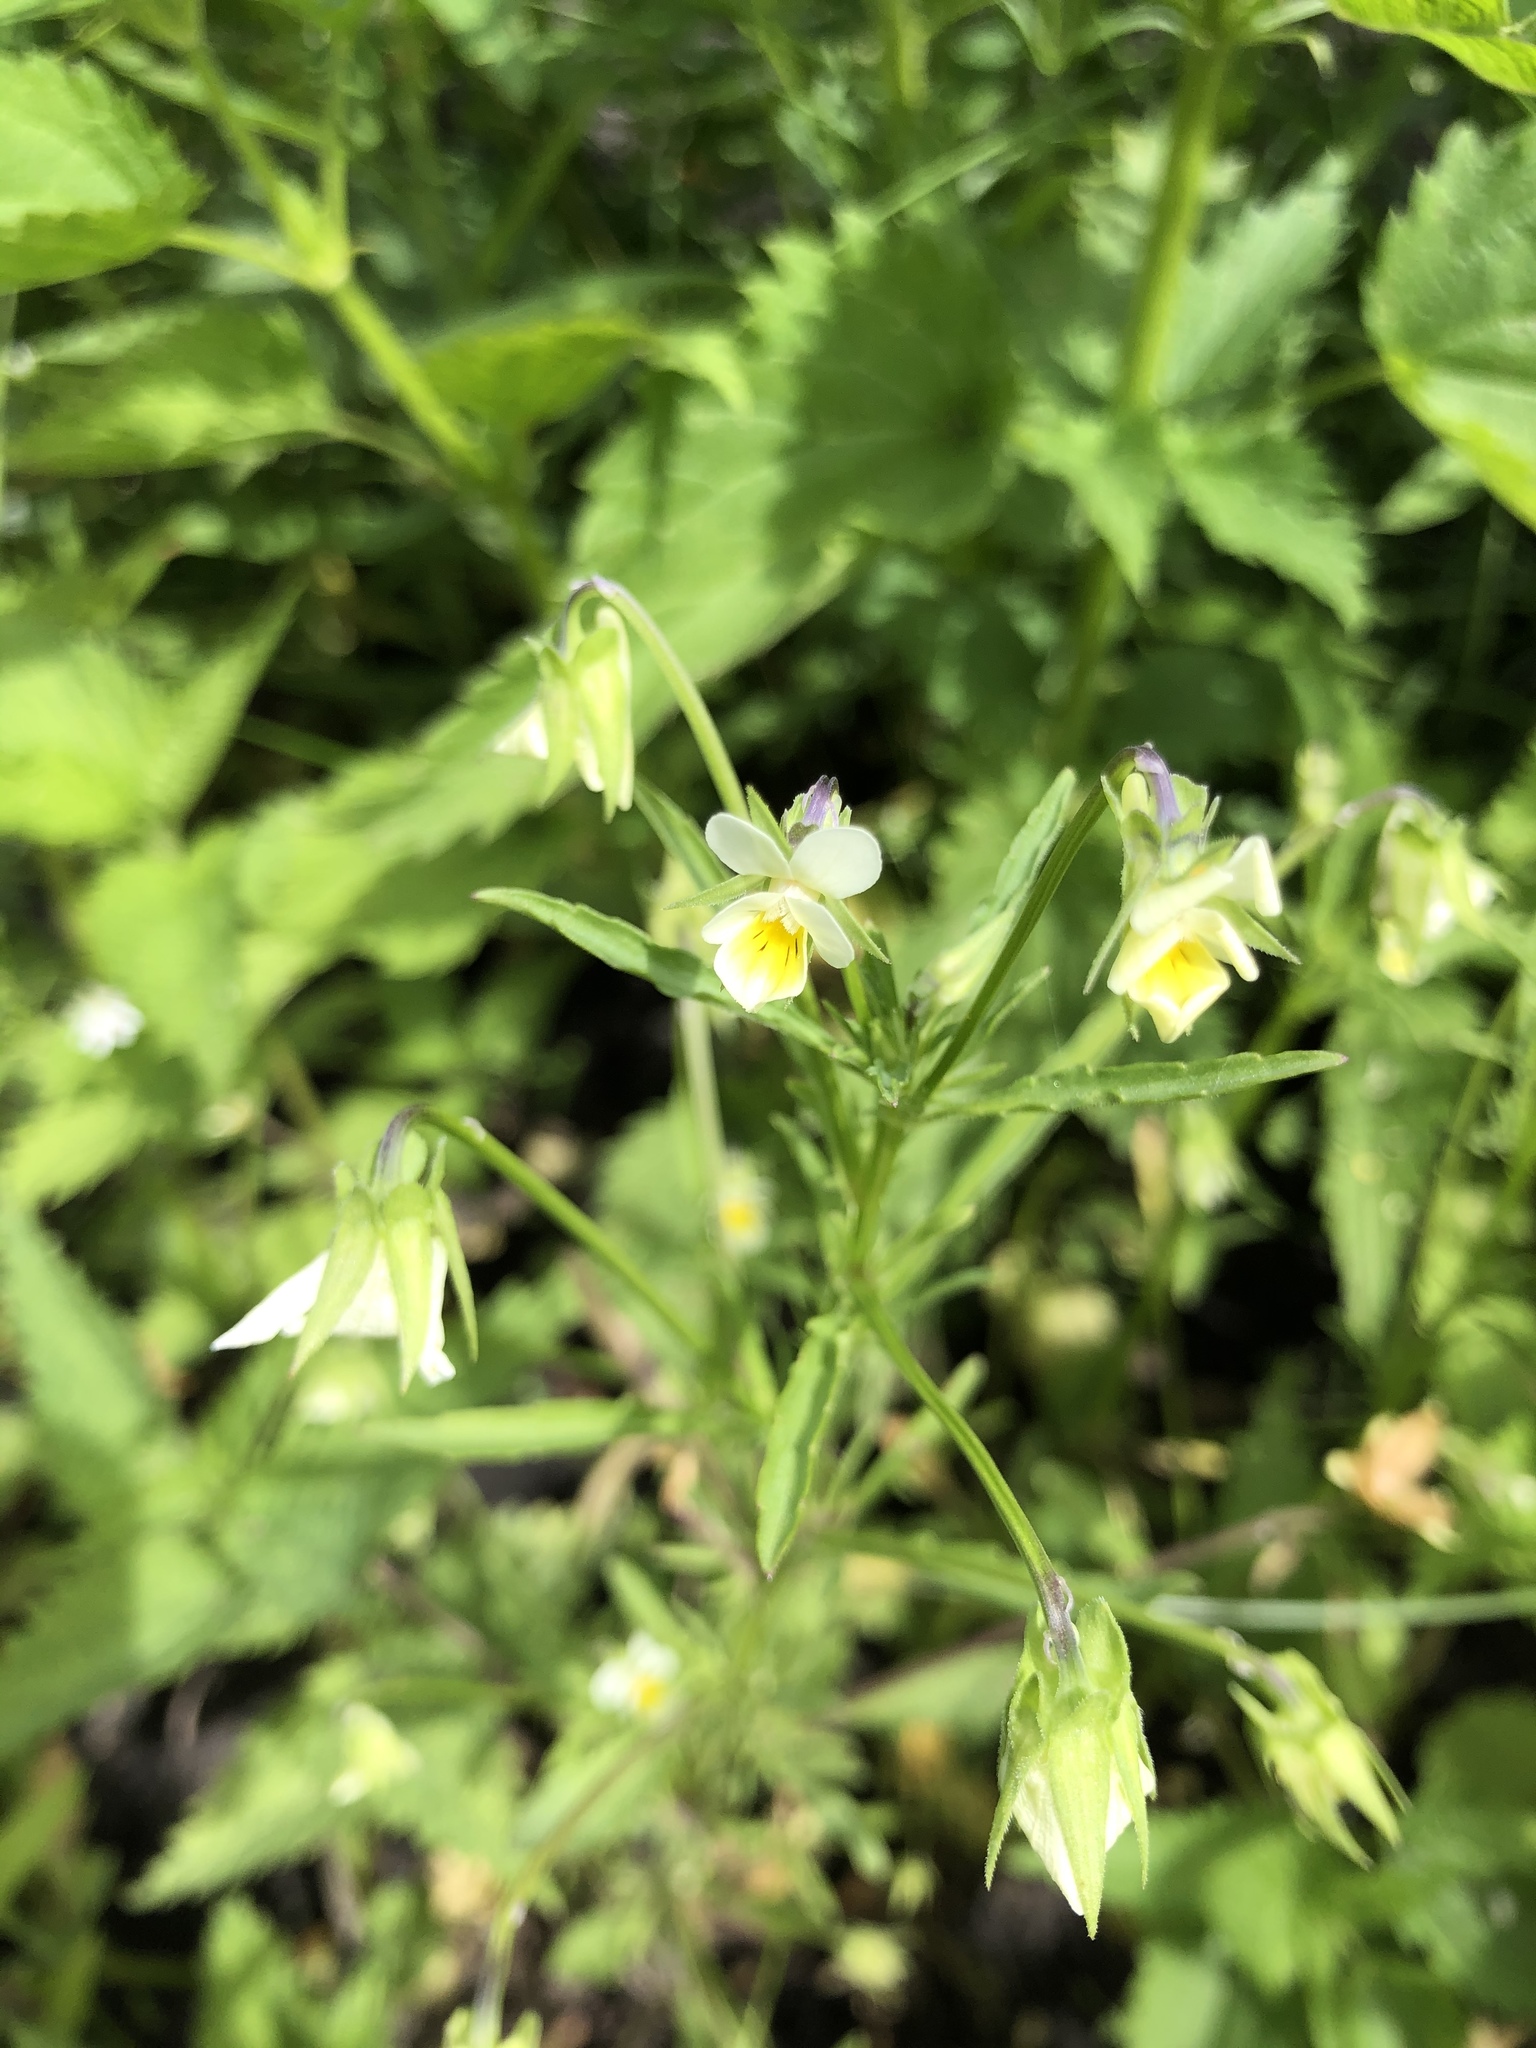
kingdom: Plantae
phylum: Tracheophyta
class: Magnoliopsida
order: Malpighiales
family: Violaceae
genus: Viola
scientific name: Viola arvensis
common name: Field pansy
